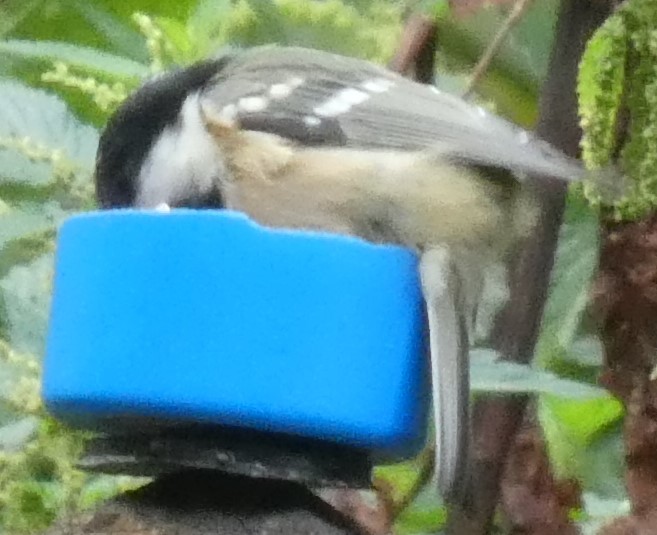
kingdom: Animalia
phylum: Chordata
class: Aves
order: Passeriformes
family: Paridae
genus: Periparus
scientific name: Periparus ater
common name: Coal tit
